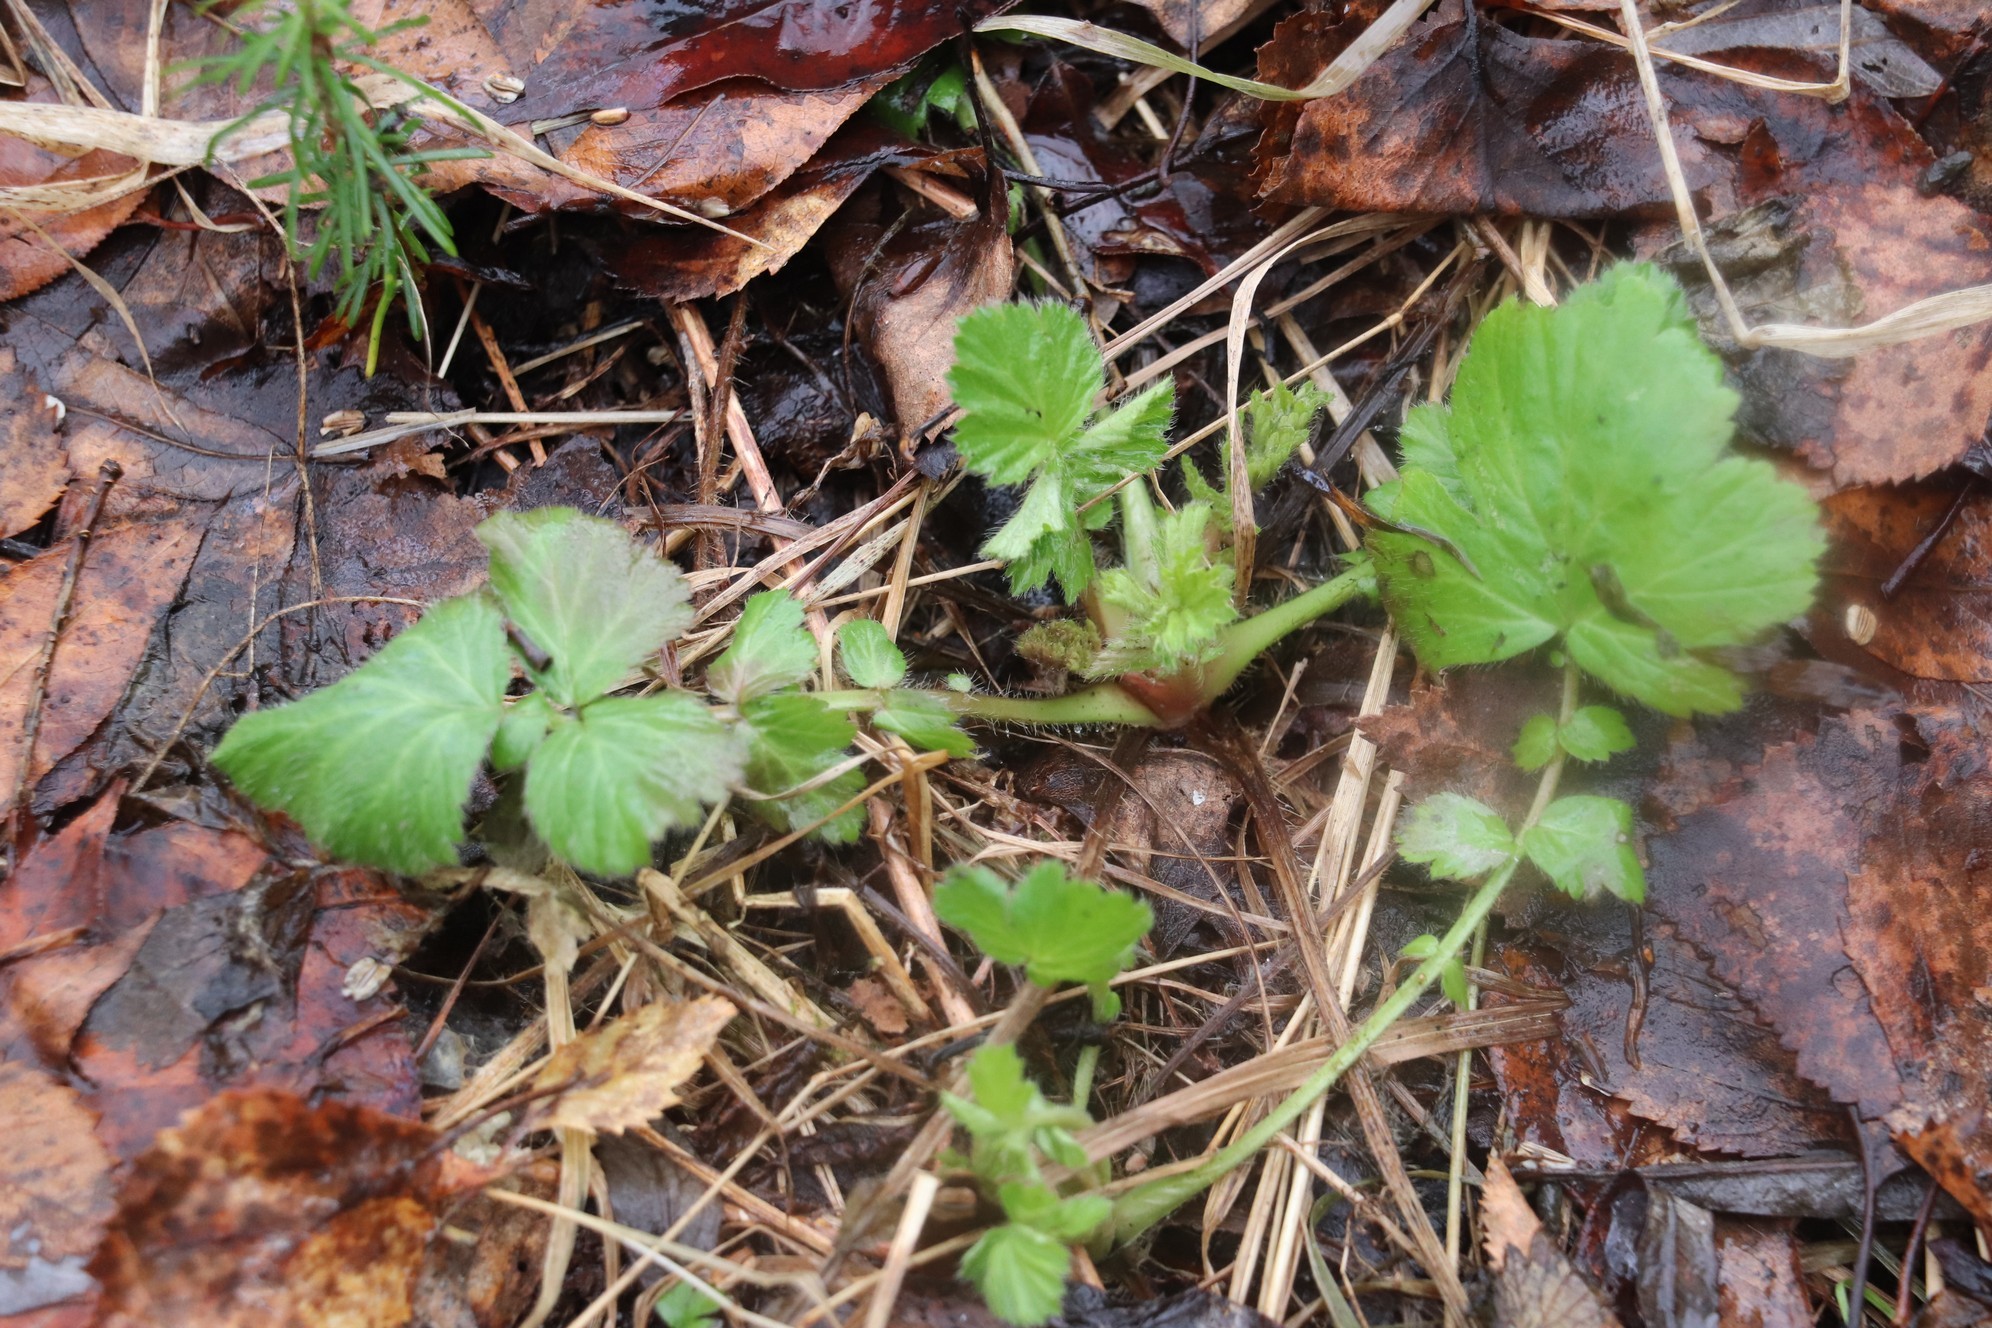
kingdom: Plantae
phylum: Tracheophyta
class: Magnoliopsida
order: Rosales
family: Rosaceae
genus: Geum
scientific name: Geum aleppicum
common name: Yellow avens
